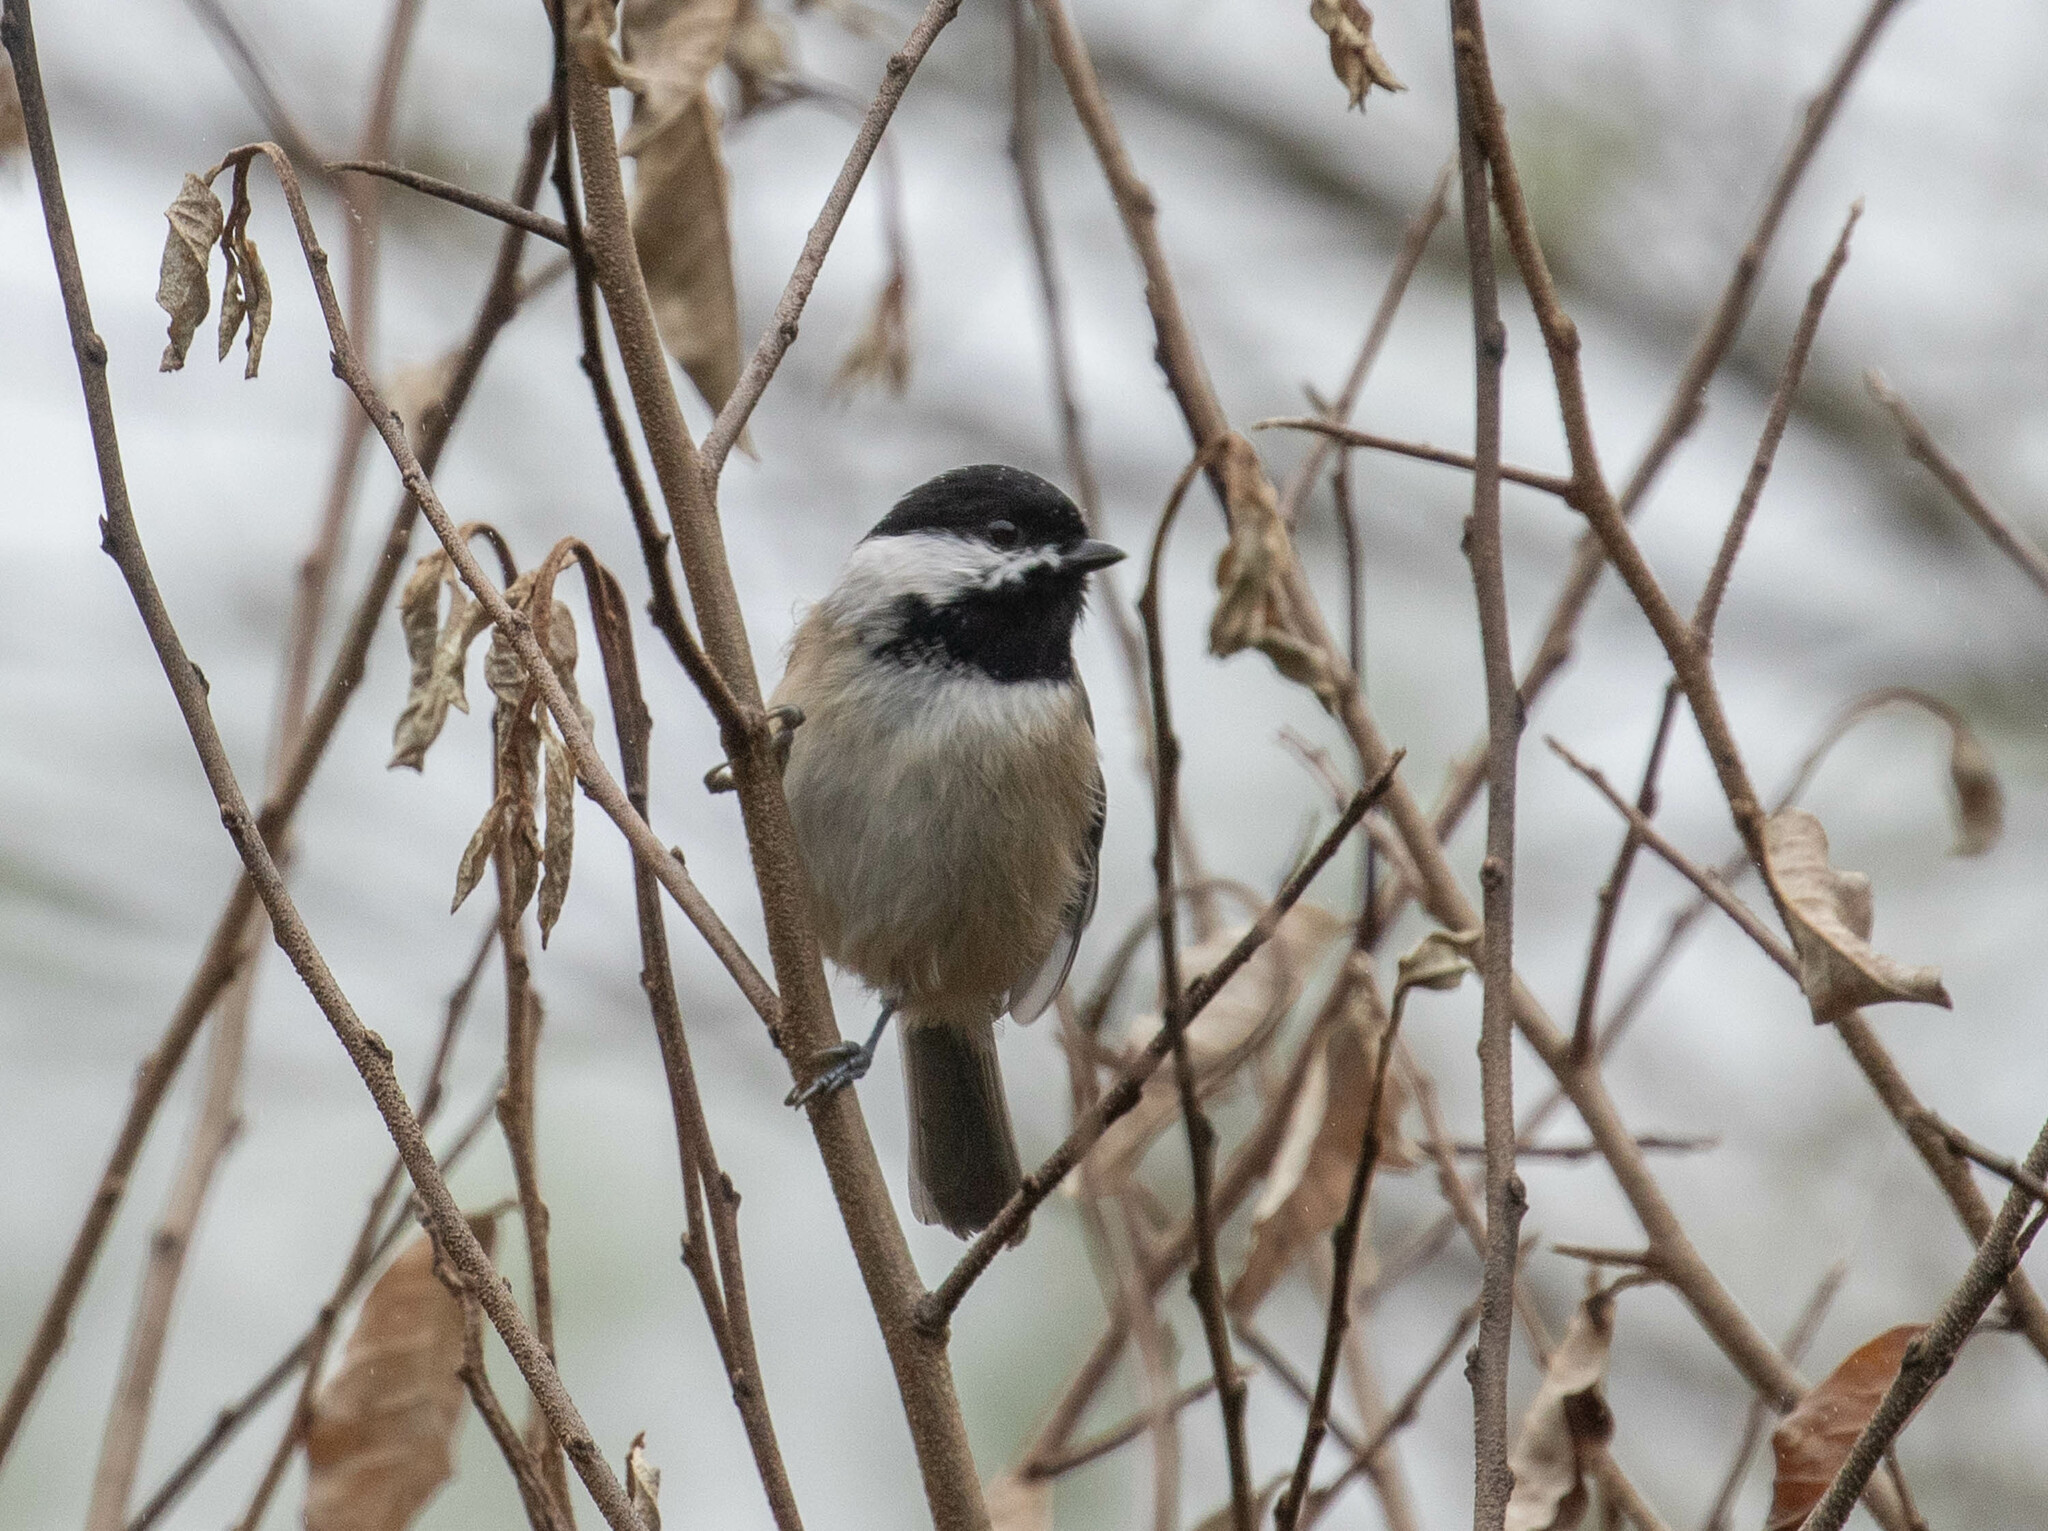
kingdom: Animalia
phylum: Chordata
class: Aves
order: Passeriformes
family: Paridae
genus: Poecile
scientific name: Poecile carolinensis
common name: Carolina chickadee
